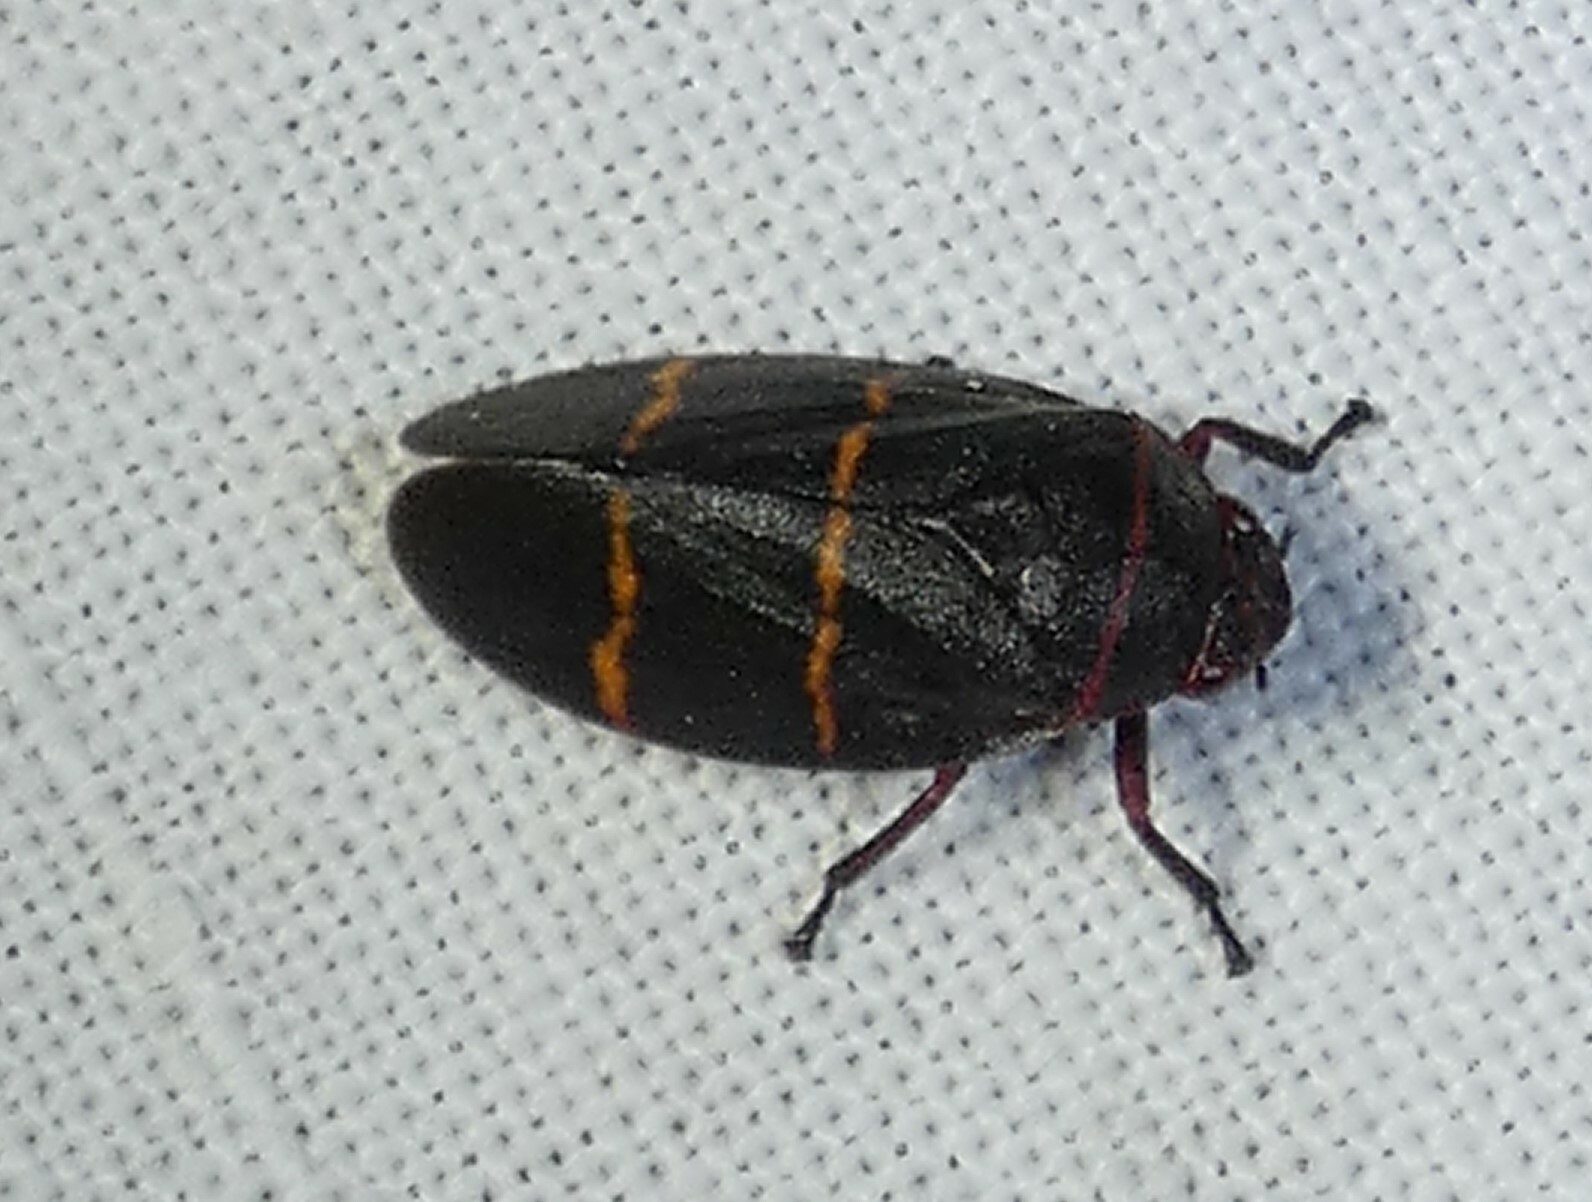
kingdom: Animalia
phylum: Arthropoda
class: Insecta
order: Hemiptera
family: Cercopidae
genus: Prosapia
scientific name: Prosapia bicincta
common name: Twolined spittlebug
